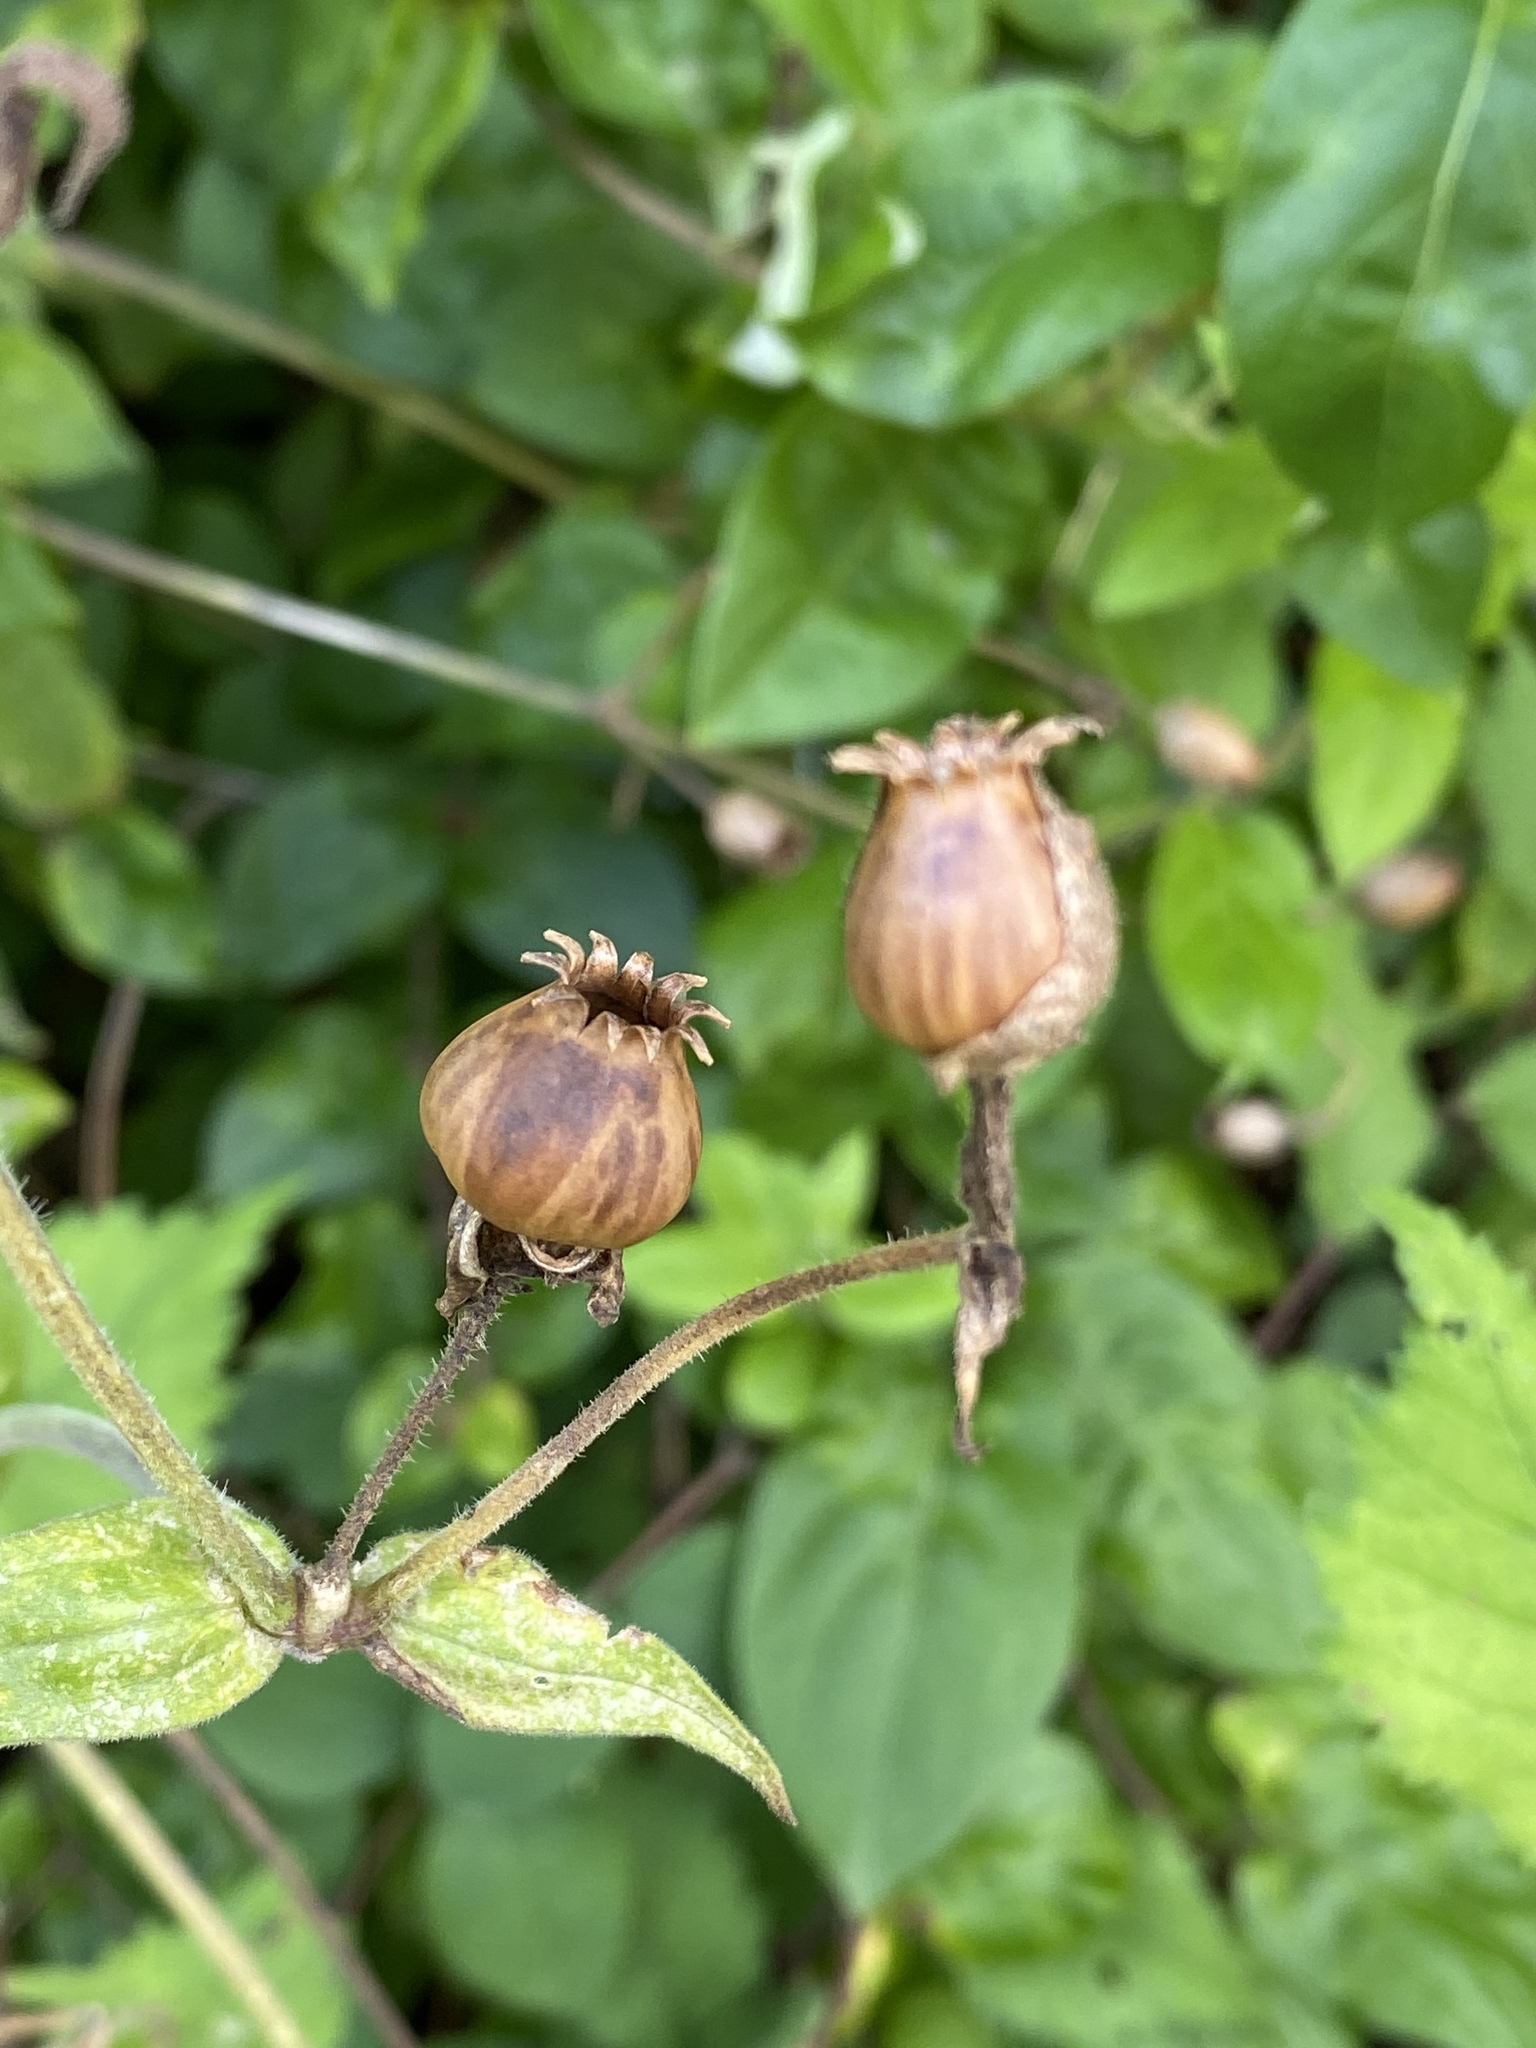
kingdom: Plantae
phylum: Tracheophyta
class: Magnoliopsida
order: Caryophyllales
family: Caryophyllaceae
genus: Silene
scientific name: Silene latifolia
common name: White campion
